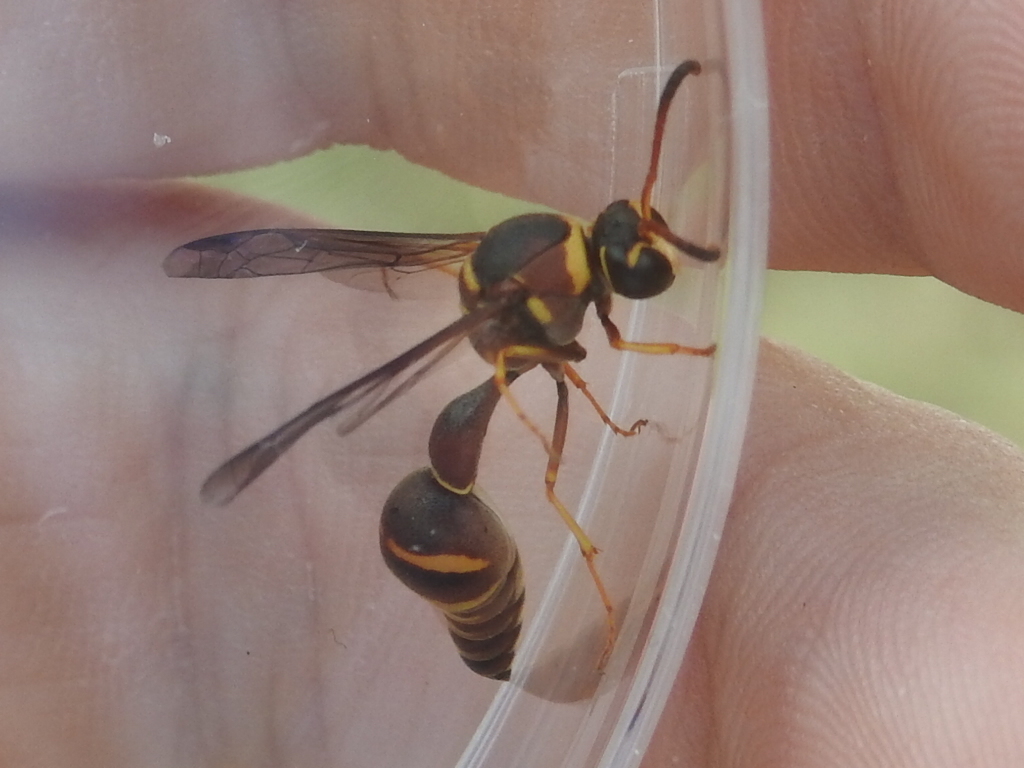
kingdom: Animalia
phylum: Arthropoda
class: Insecta
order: Hymenoptera
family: Vespidae
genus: Eumenes
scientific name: Eumenes smithii
